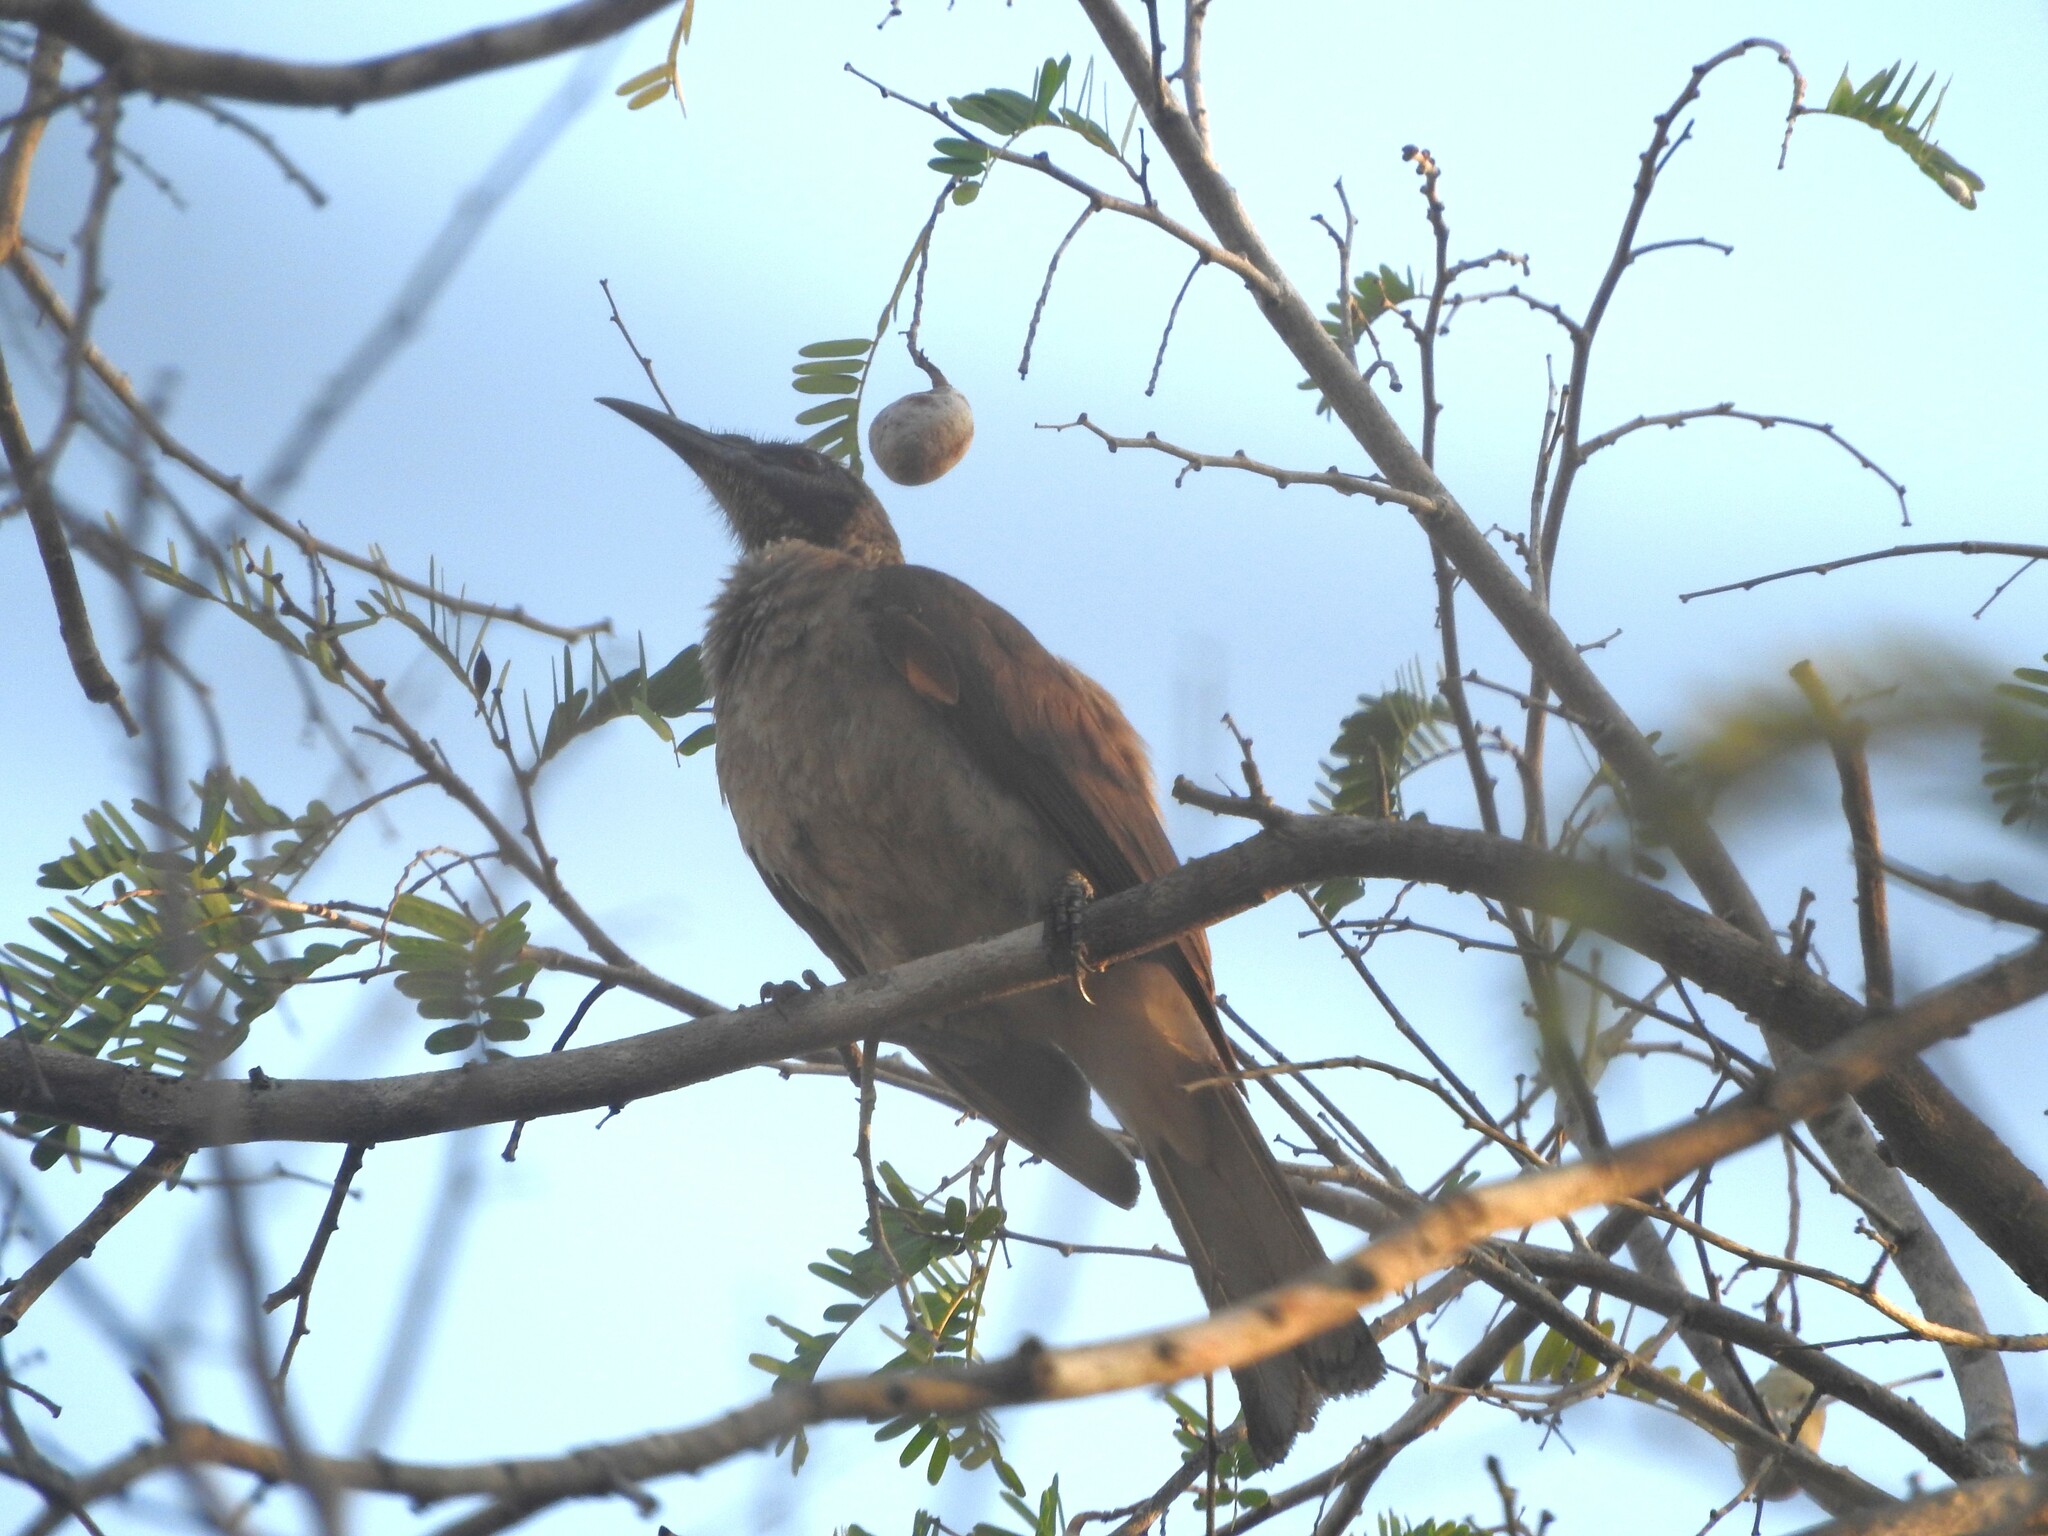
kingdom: Animalia
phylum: Chordata
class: Aves
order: Passeriformes
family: Meliphagidae
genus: Philemon
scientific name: Philemon buceroides
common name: Helmeted friarbird
